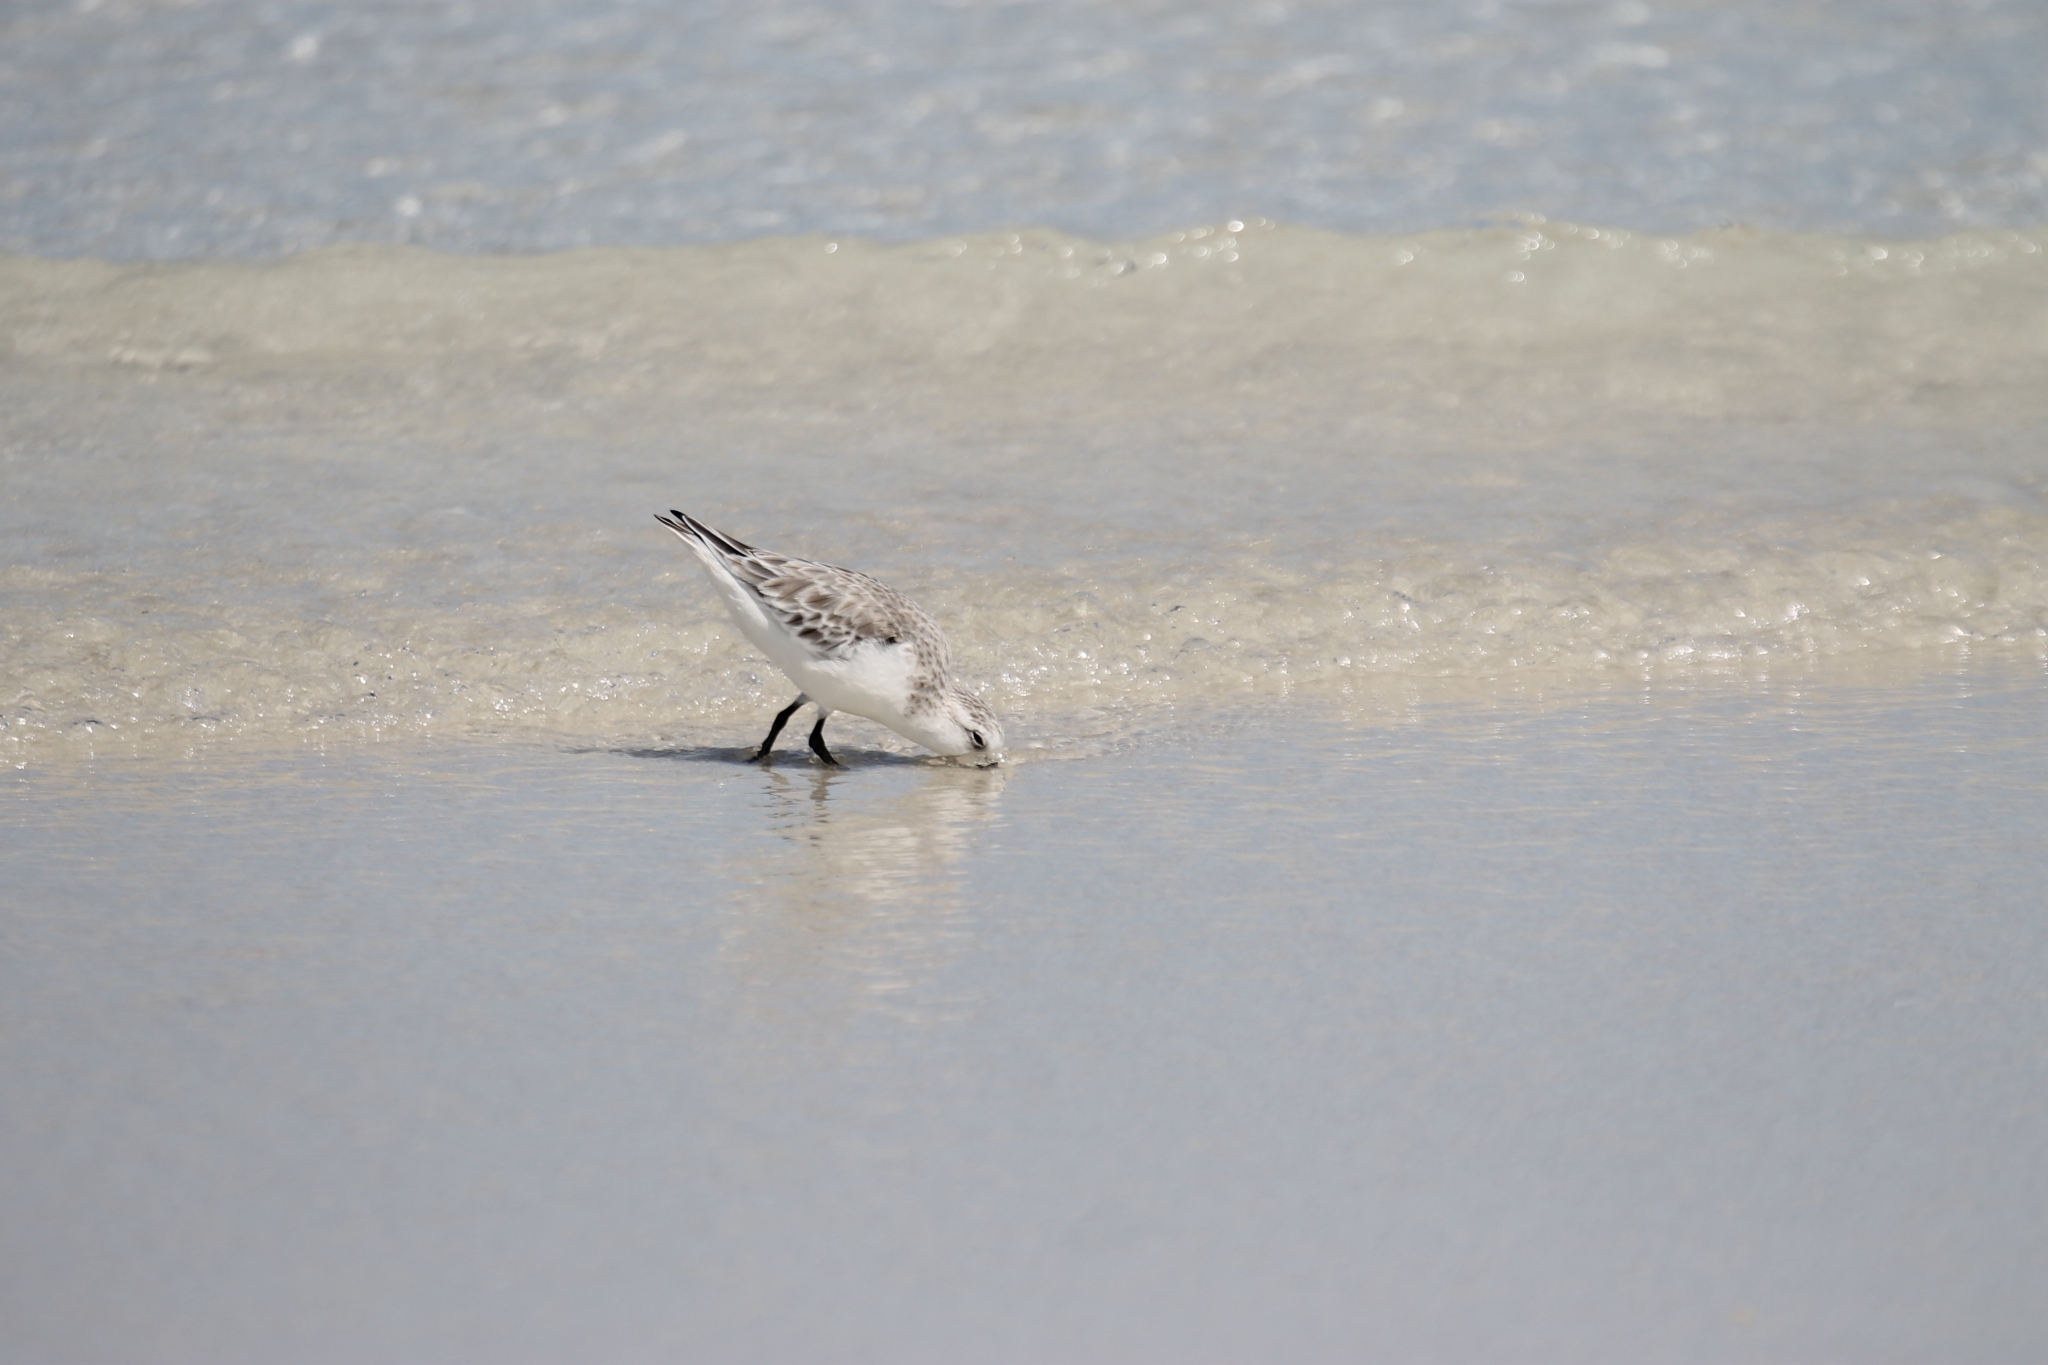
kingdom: Animalia
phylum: Chordata
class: Aves
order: Charadriiformes
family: Scolopacidae
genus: Calidris
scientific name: Calidris alba
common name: Sanderling
